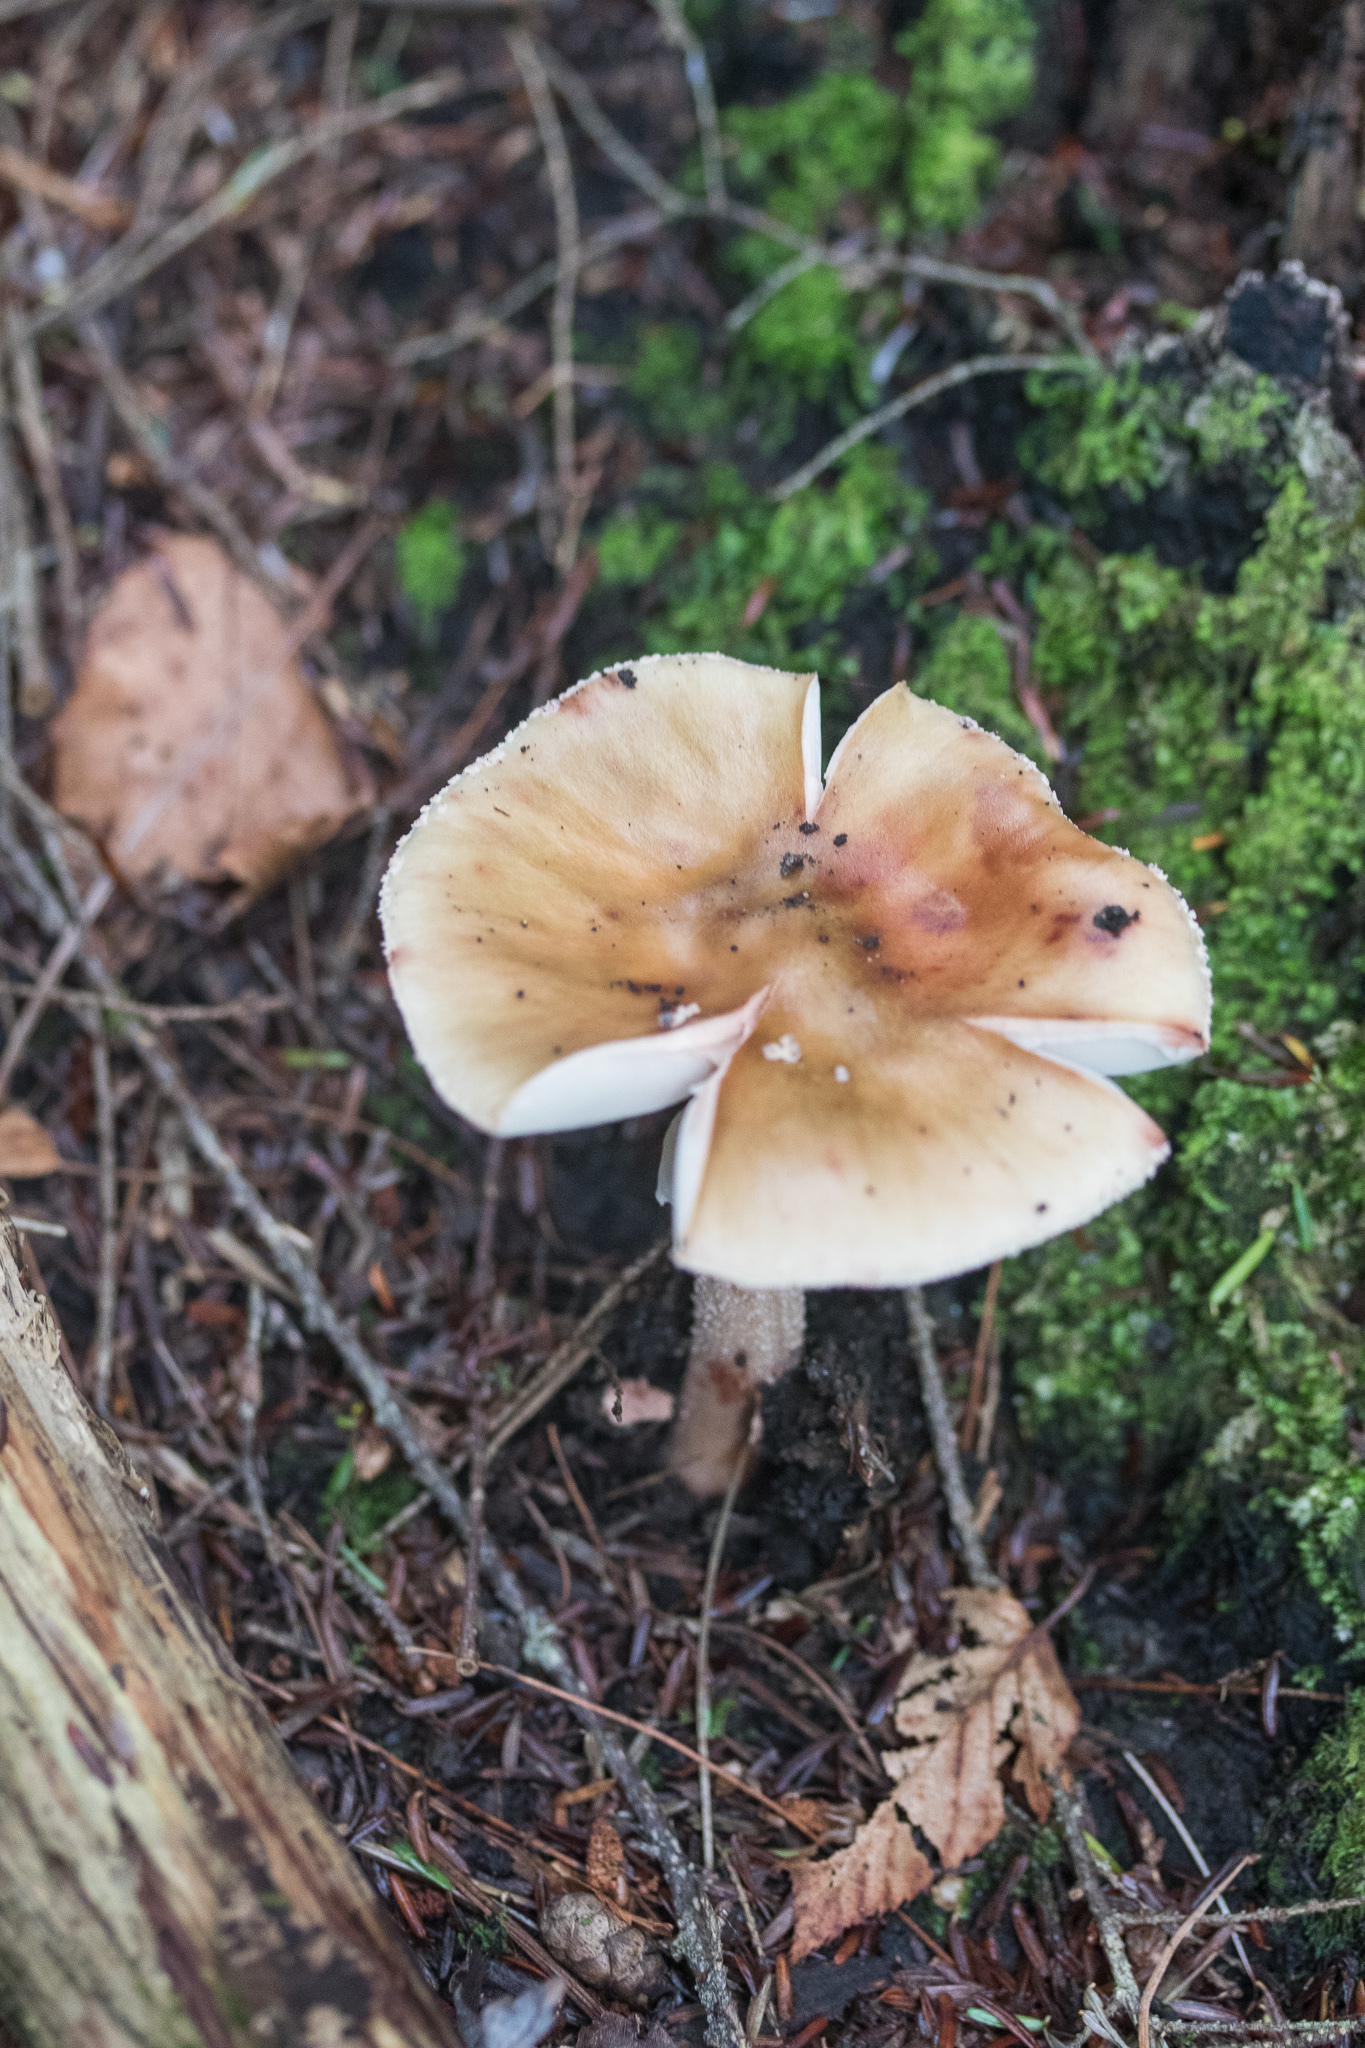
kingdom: Fungi
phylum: Basidiomycota
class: Agaricomycetes
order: Agaricales
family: Amanitaceae
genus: Amanita
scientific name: Amanita rubescens
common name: Blusher
